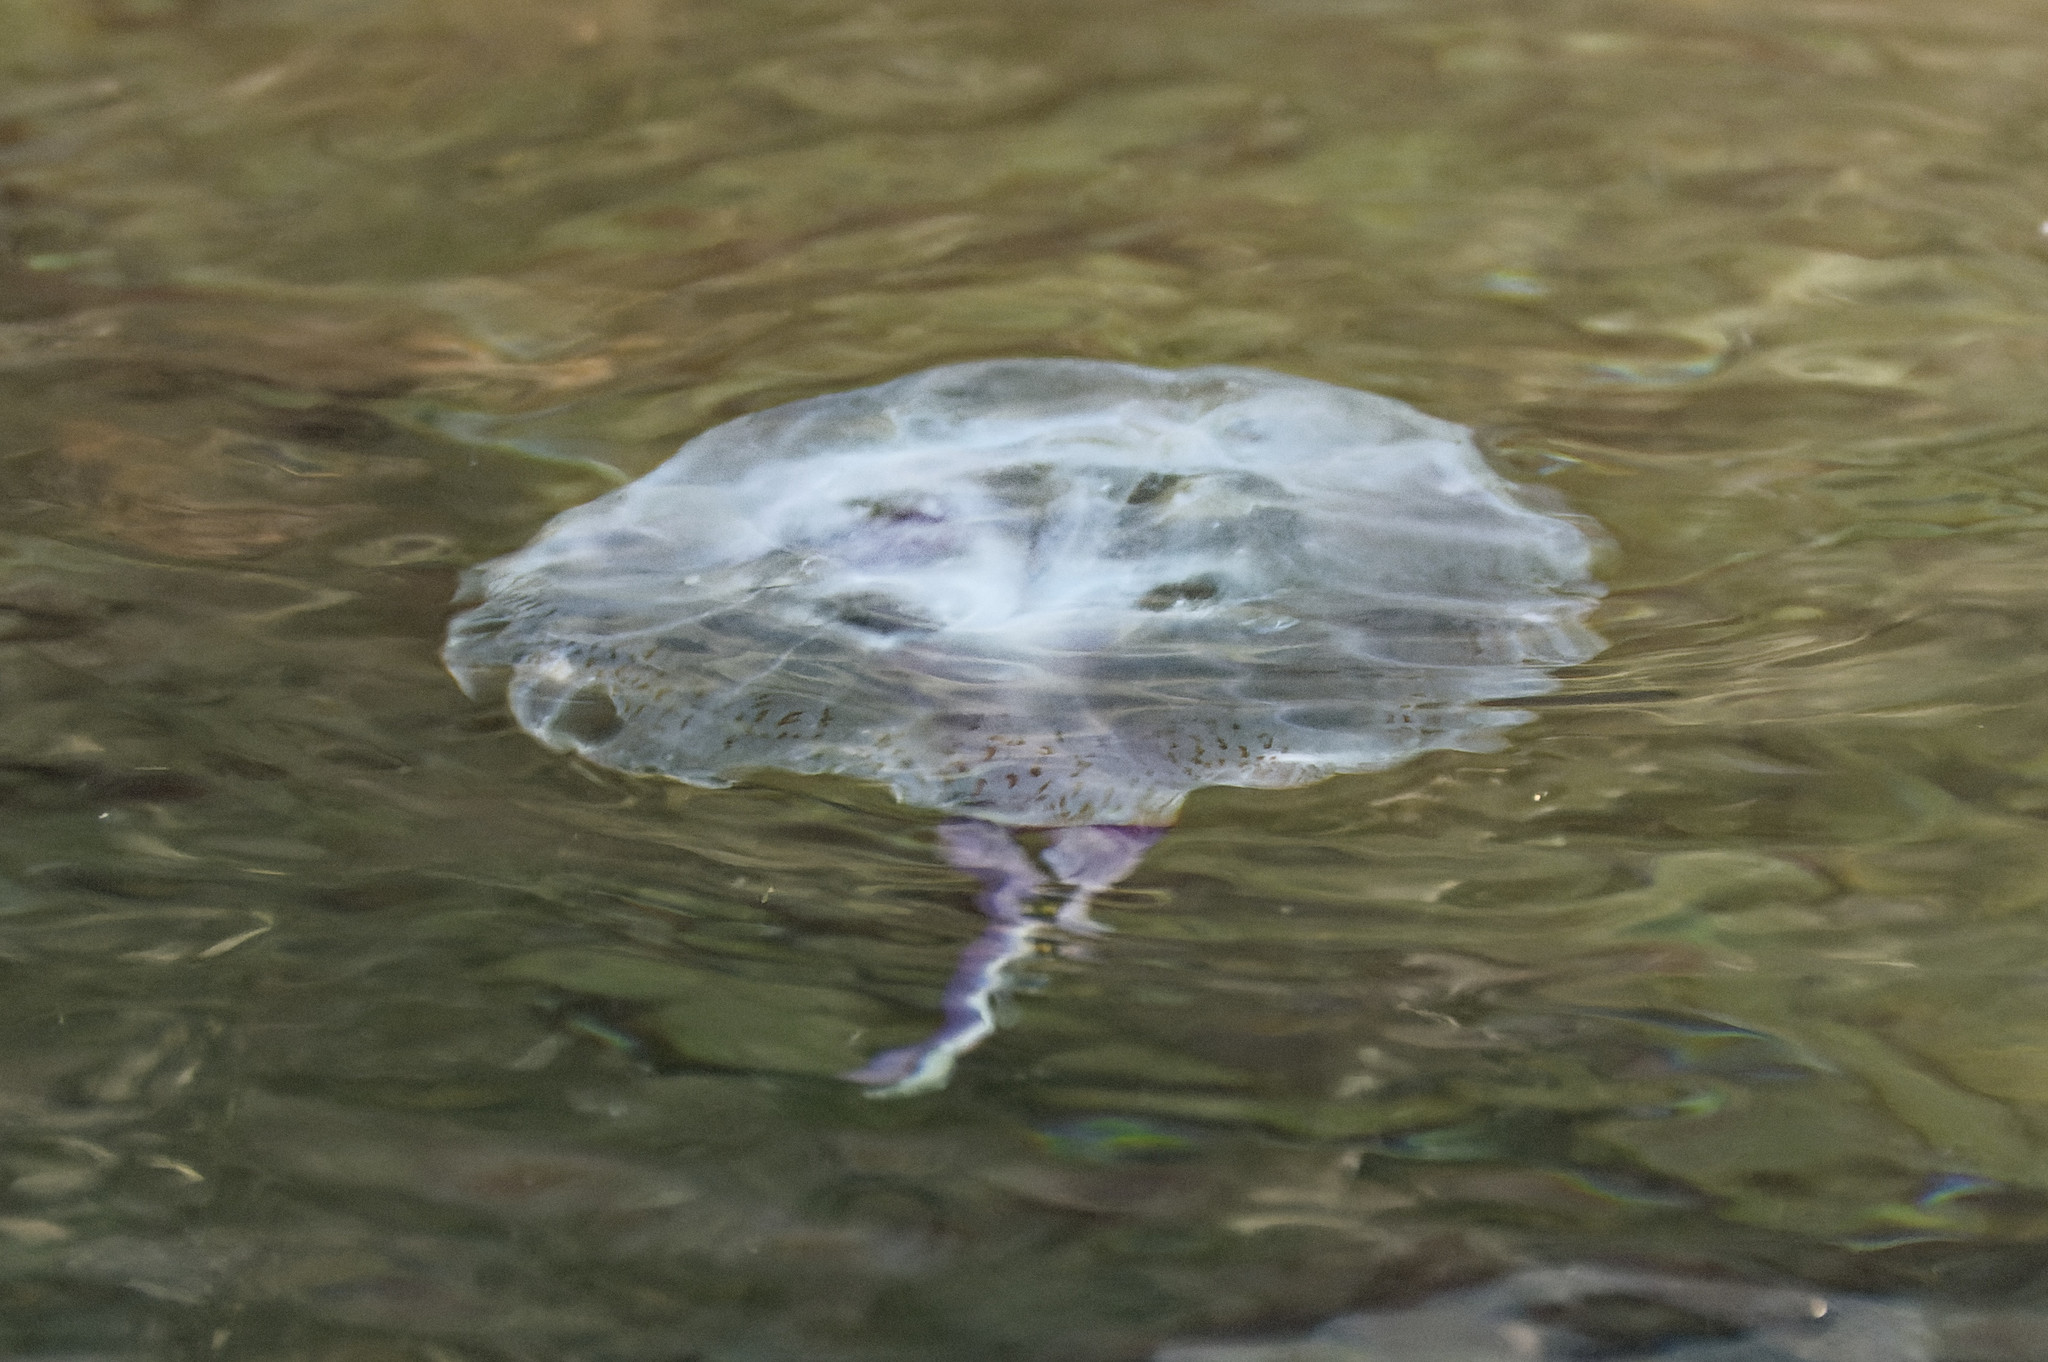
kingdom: Animalia
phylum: Cnidaria
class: Scyphozoa
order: Semaeostomeae
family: Pelagiidae
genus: Pelagia
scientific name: Pelagia noctiluca
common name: Mauve stinger
